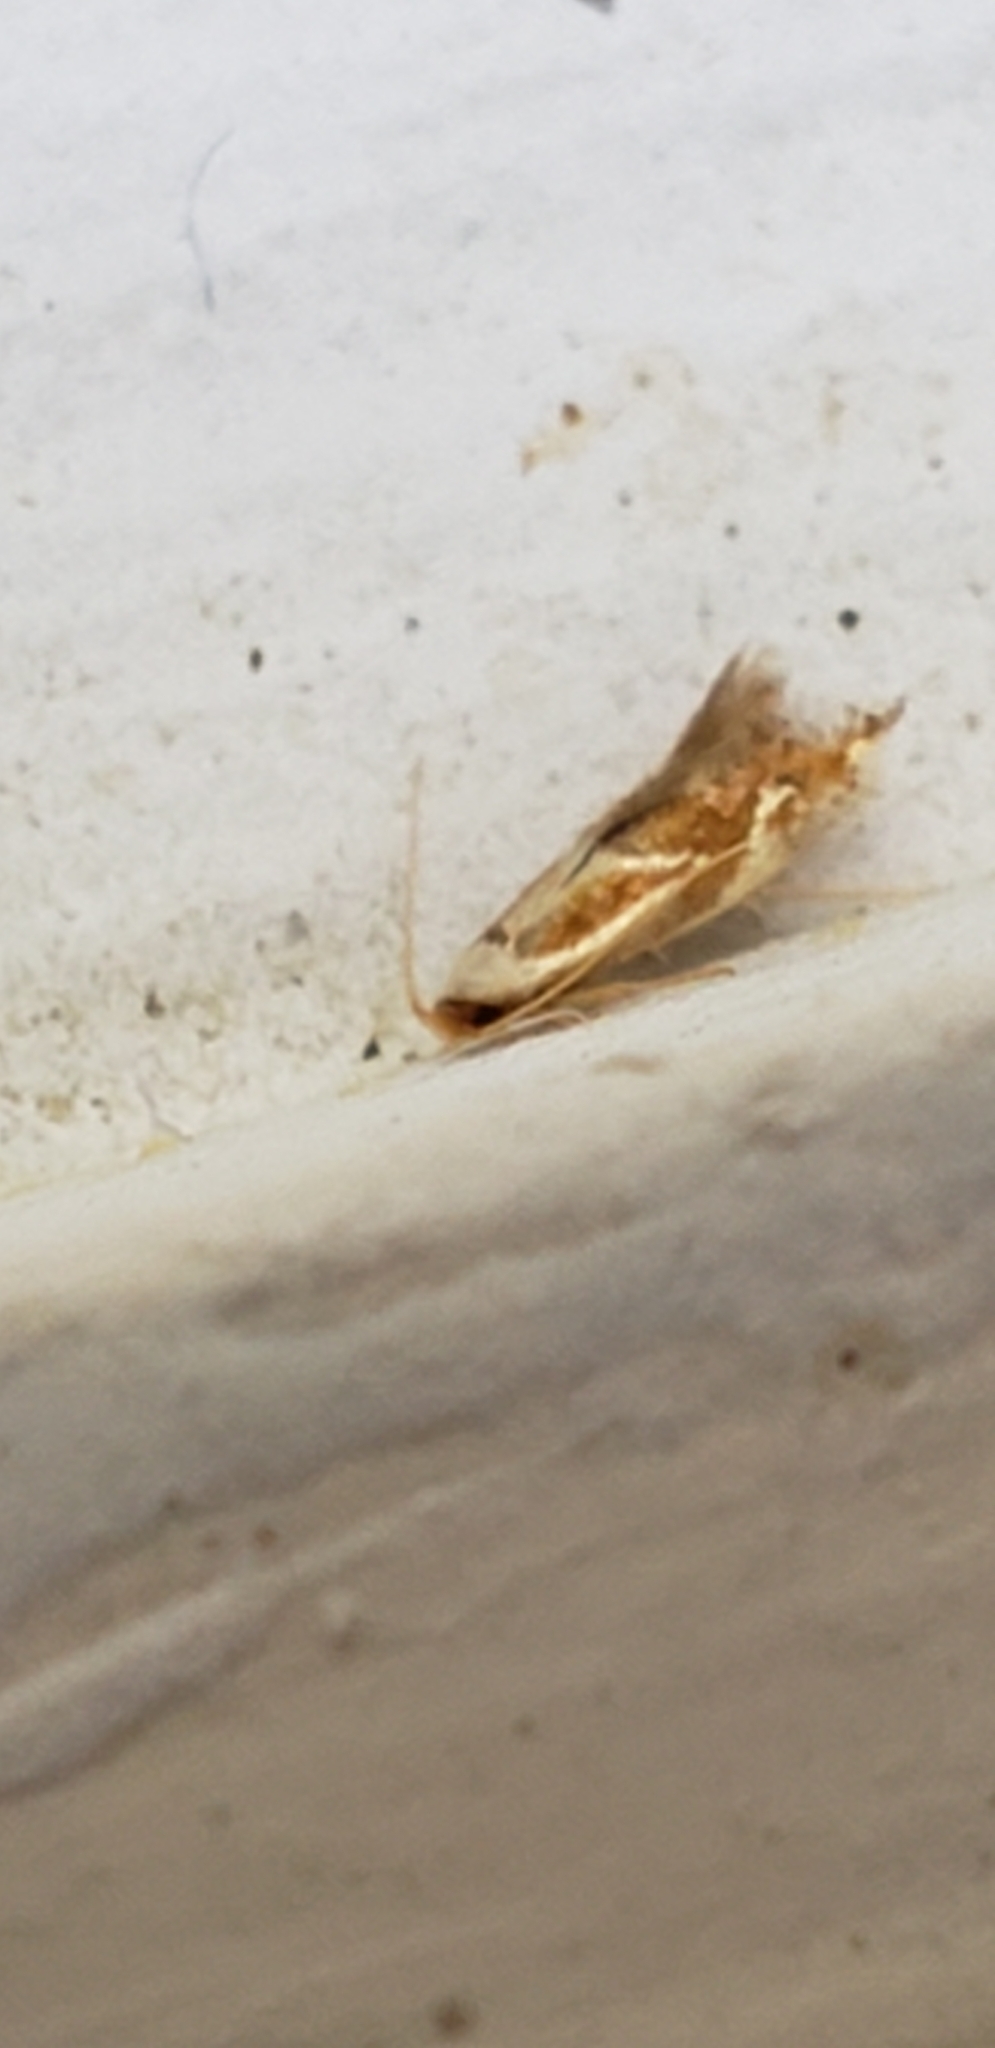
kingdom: Animalia
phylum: Arthropoda
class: Insecta
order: Lepidoptera
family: Lyonetiidae
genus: Philonome
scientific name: Philonome clemensella
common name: Clemen's philonome moth
